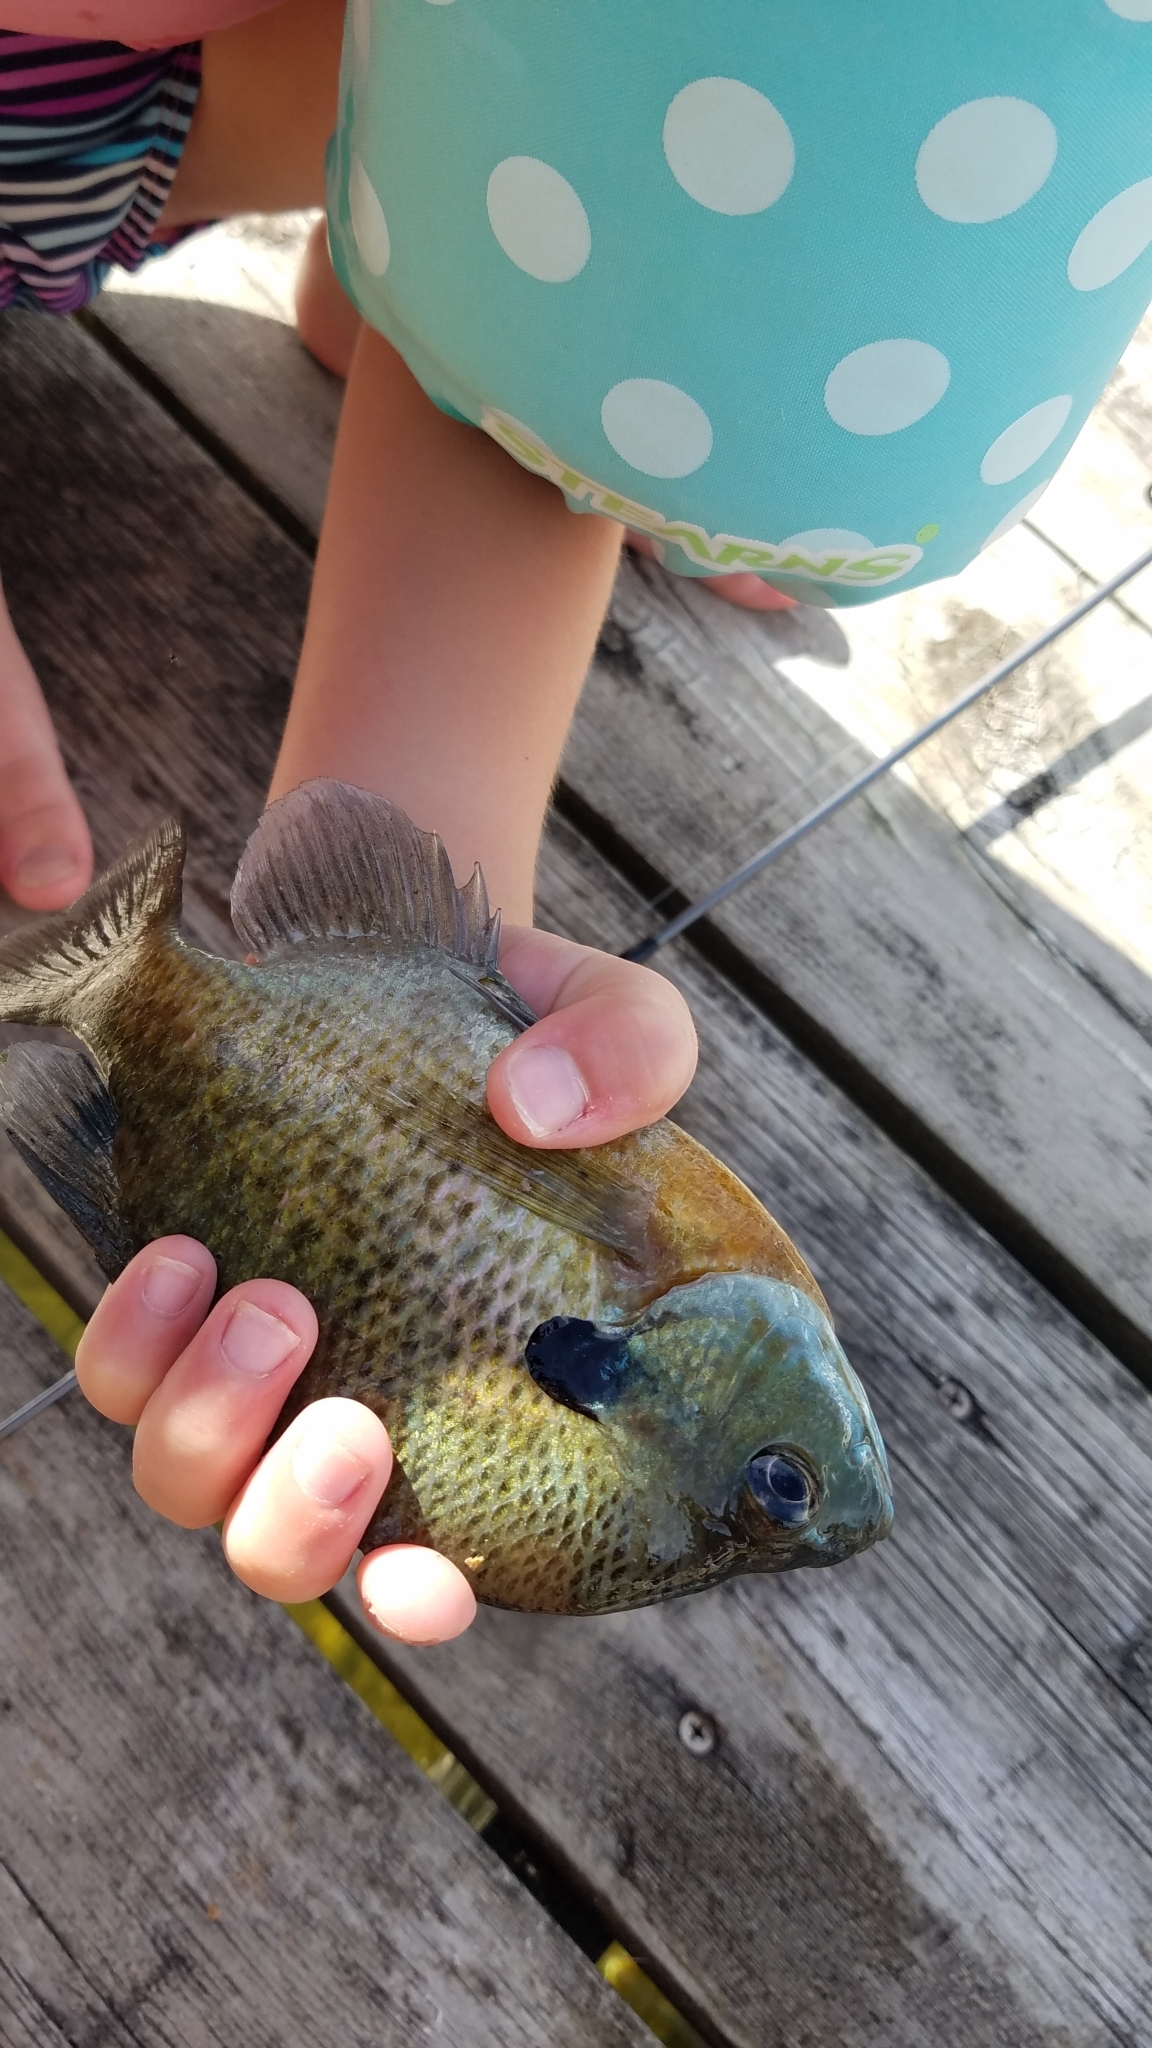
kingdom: Animalia
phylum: Chordata
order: Perciformes
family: Centrarchidae
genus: Lepomis
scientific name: Lepomis macrochirus
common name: Bluegill
